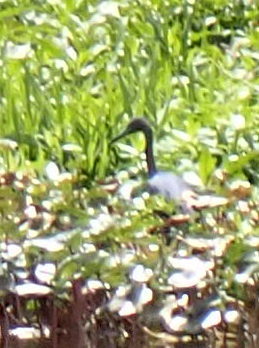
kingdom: Animalia
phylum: Chordata
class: Aves
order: Pelecaniformes
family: Ardeidae
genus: Egretta
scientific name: Egretta caerulea
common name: Little blue heron
